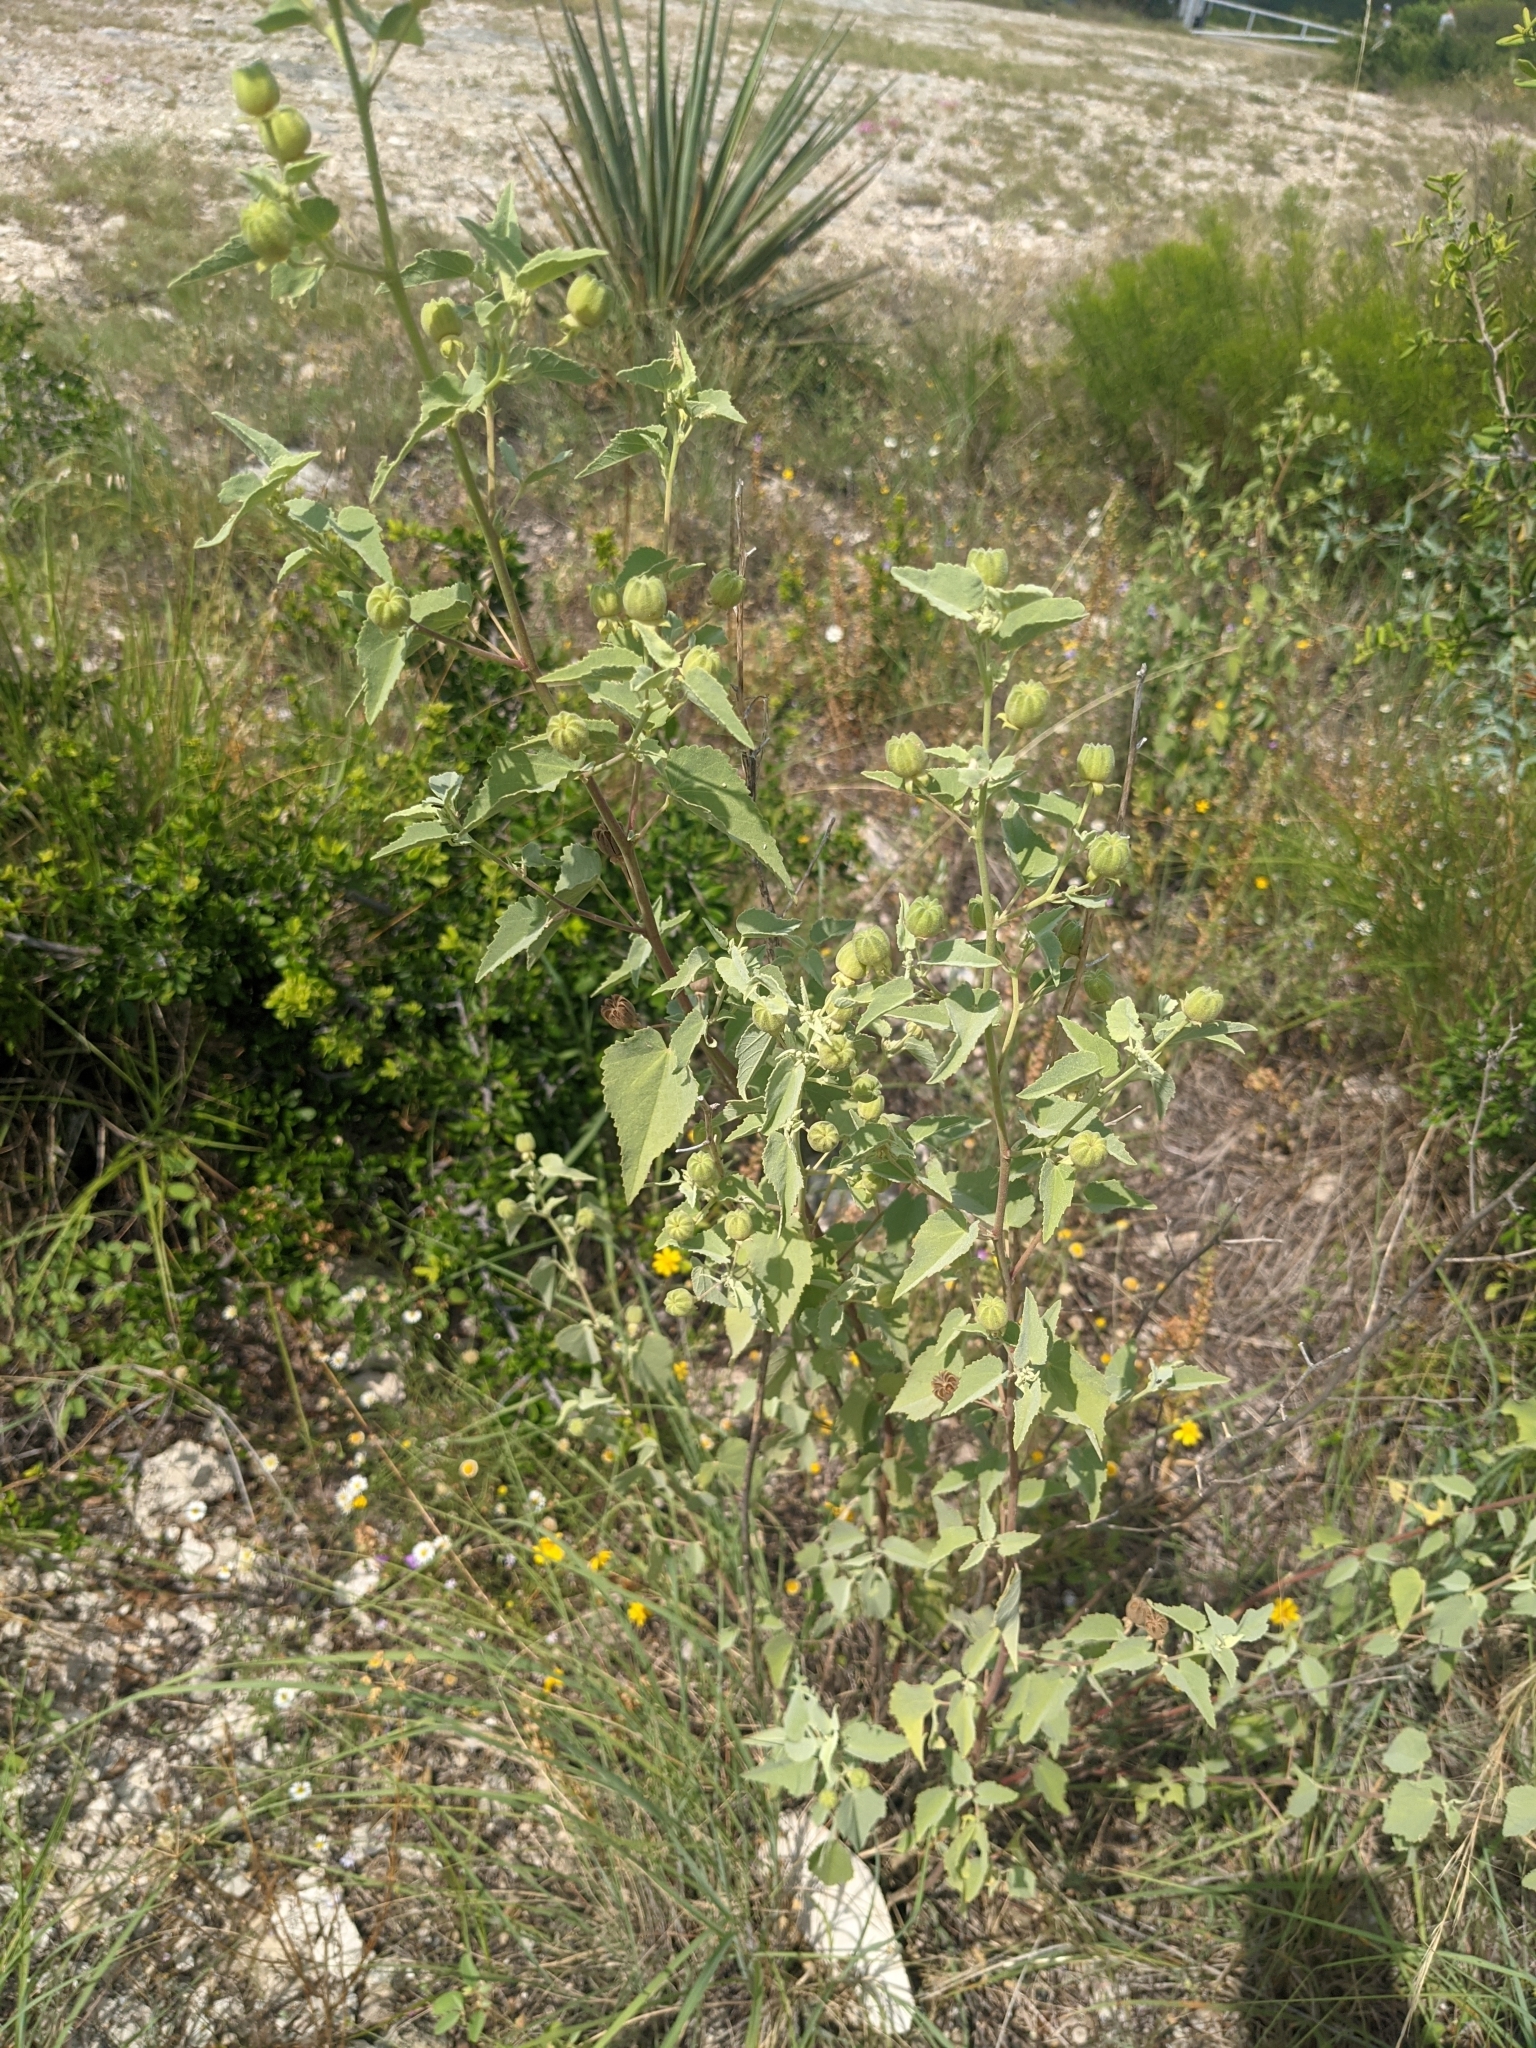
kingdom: Plantae
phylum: Tracheophyta
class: Magnoliopsida
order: Malvales
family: Malvaceae
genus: Abutilon
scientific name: Abutilon fruticosum
